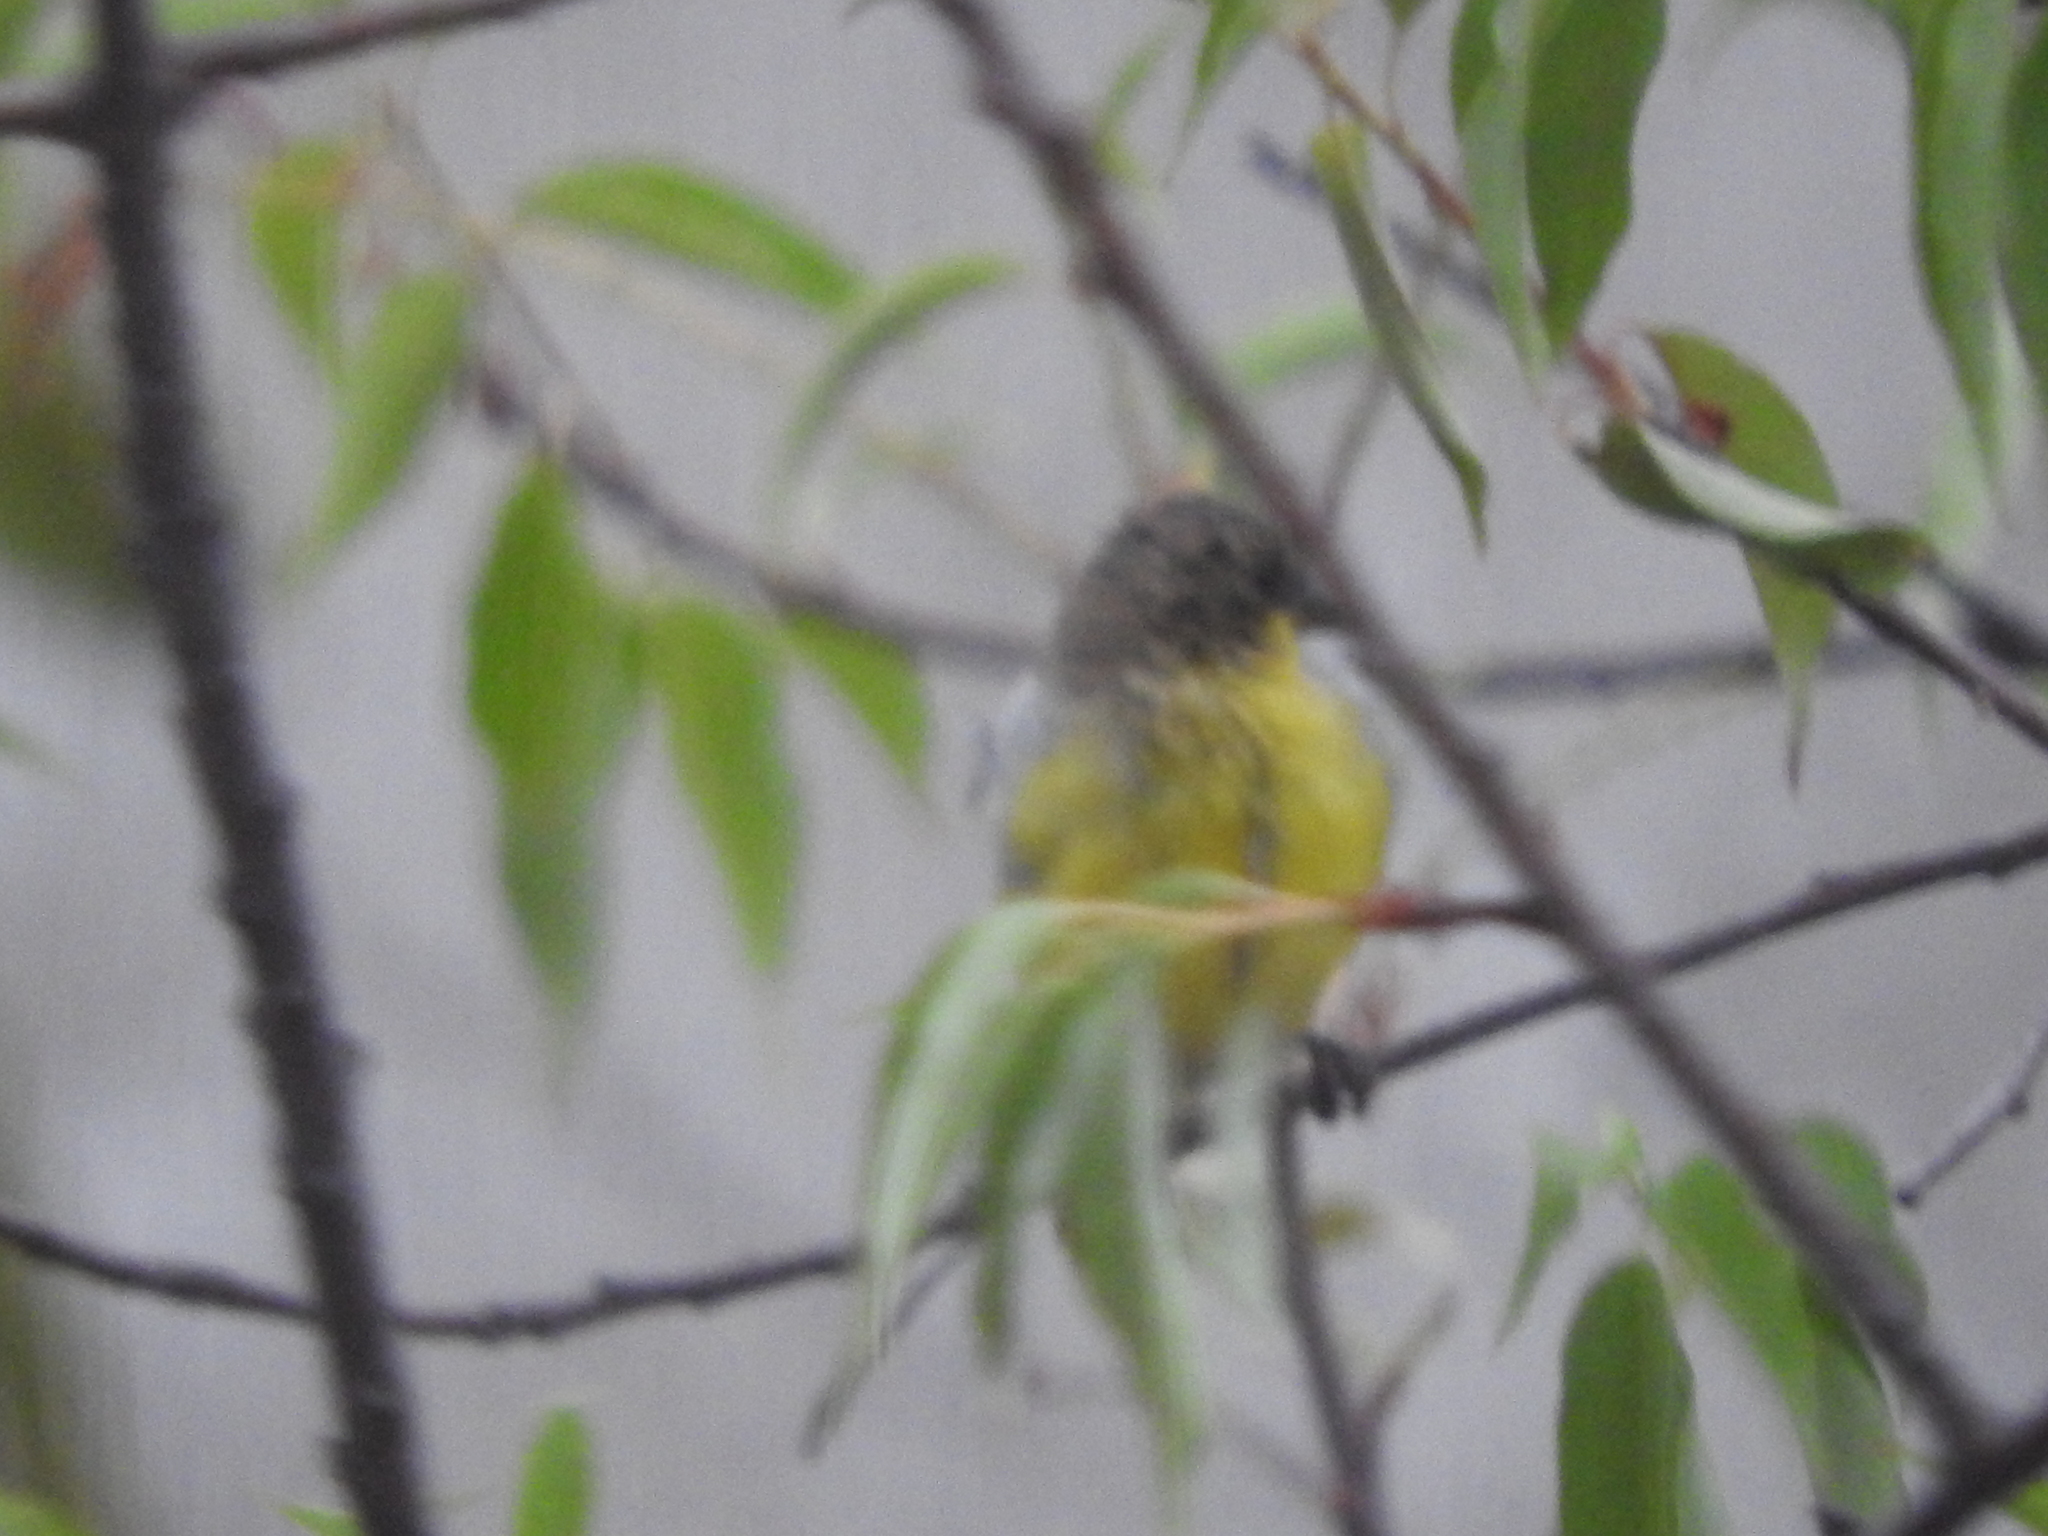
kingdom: Animalia
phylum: Chordata
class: Aves
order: Passeriformes
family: Fringillidae
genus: Spinus
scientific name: Spinus psaltria
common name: Lesser goldfinch
